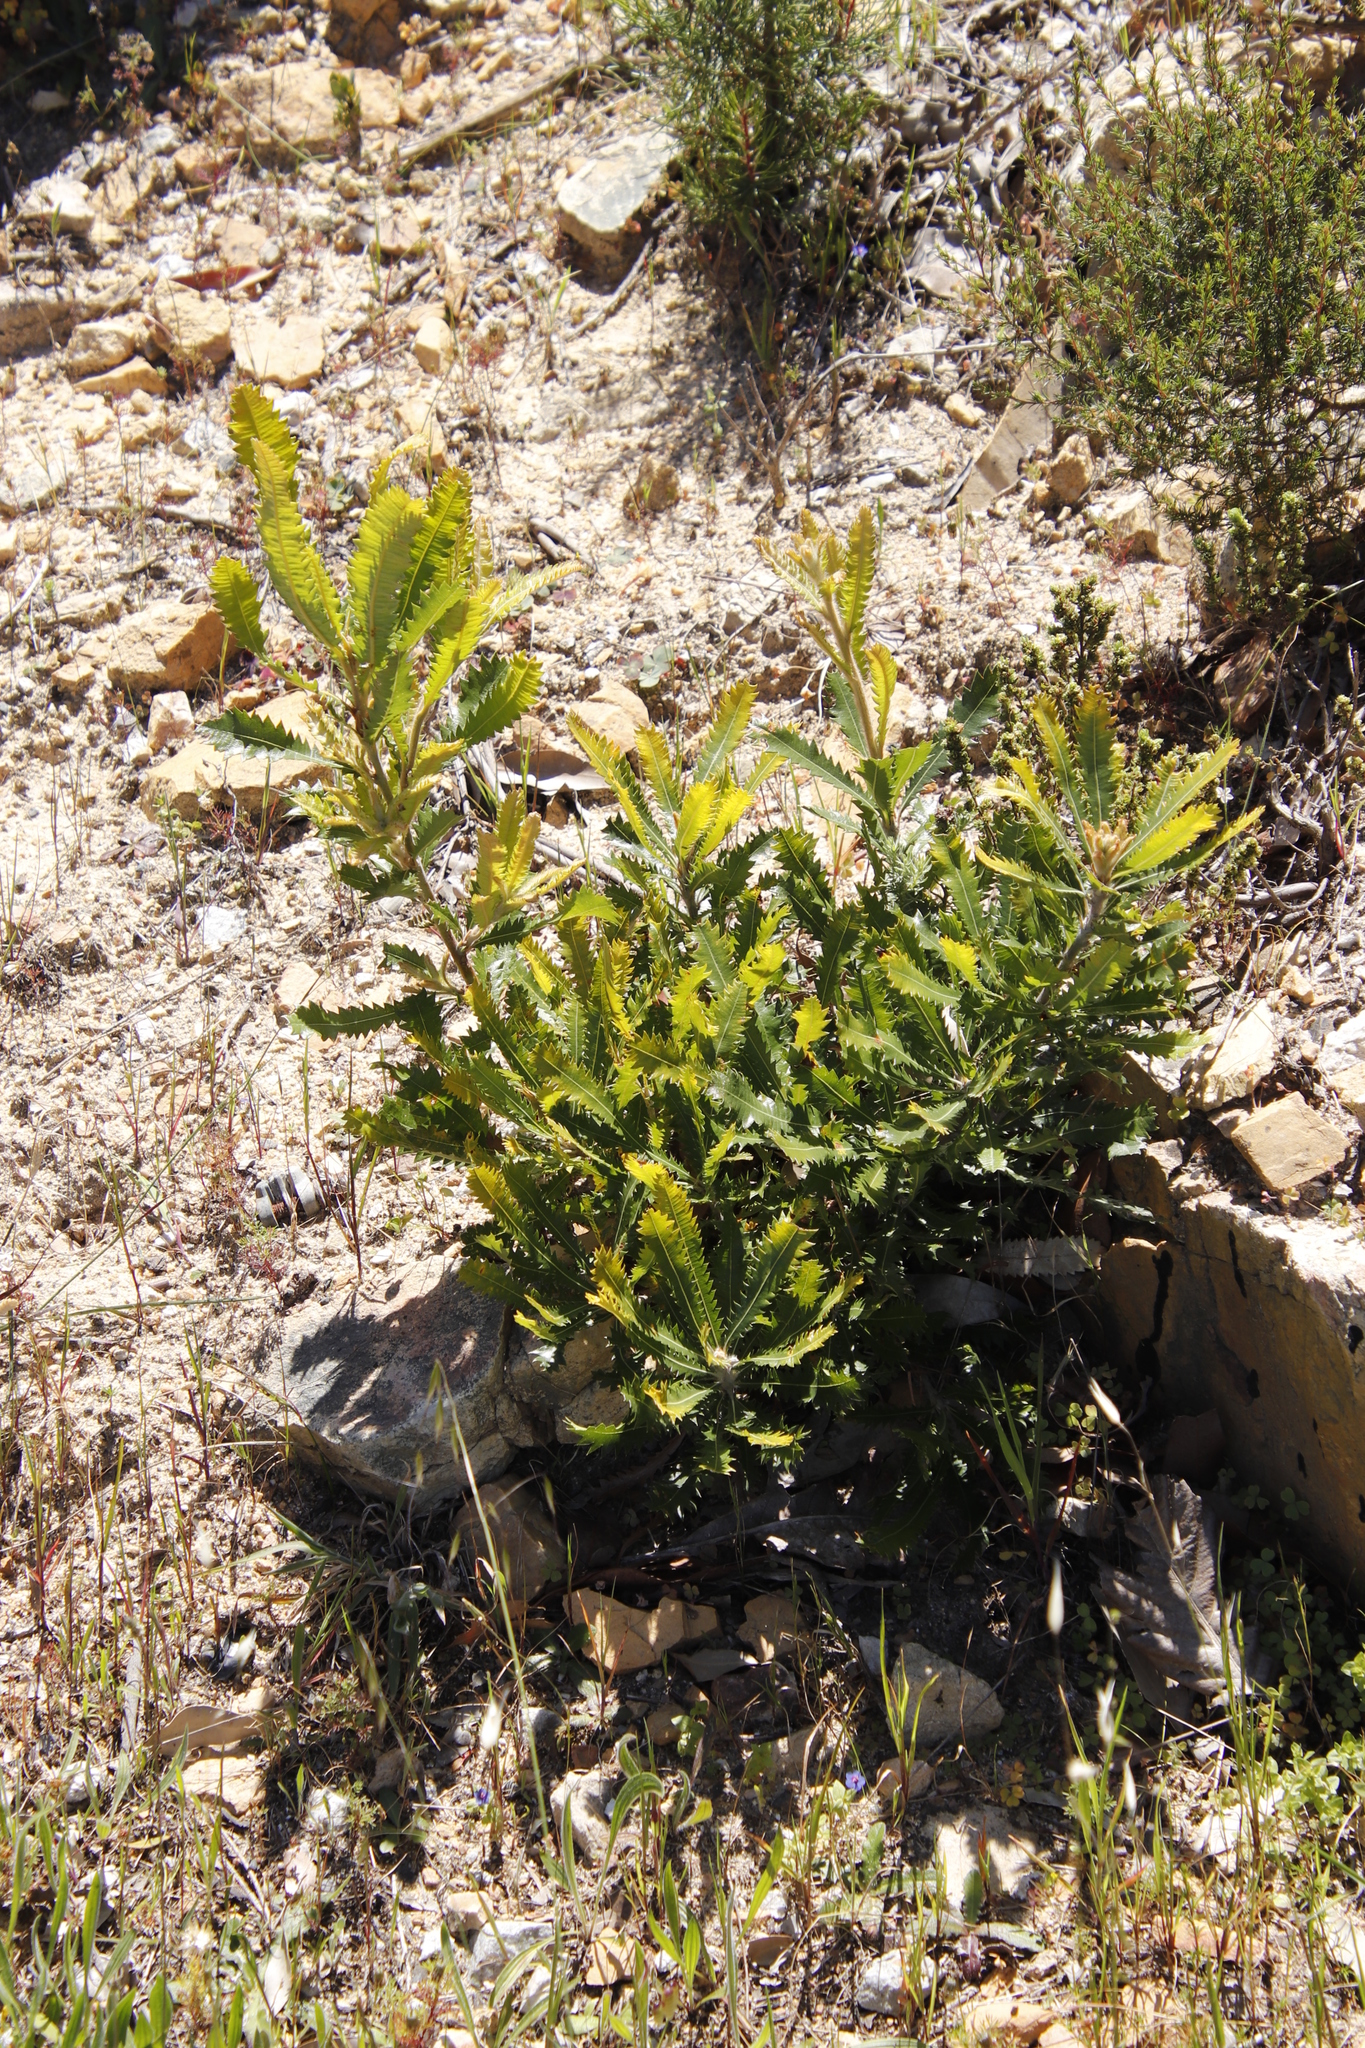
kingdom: Plantae
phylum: Tracheophyta
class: Magnoliopsida
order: Proteales
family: Proteaceae
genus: Banksia
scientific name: Banksia aemula
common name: Wallum banksia
